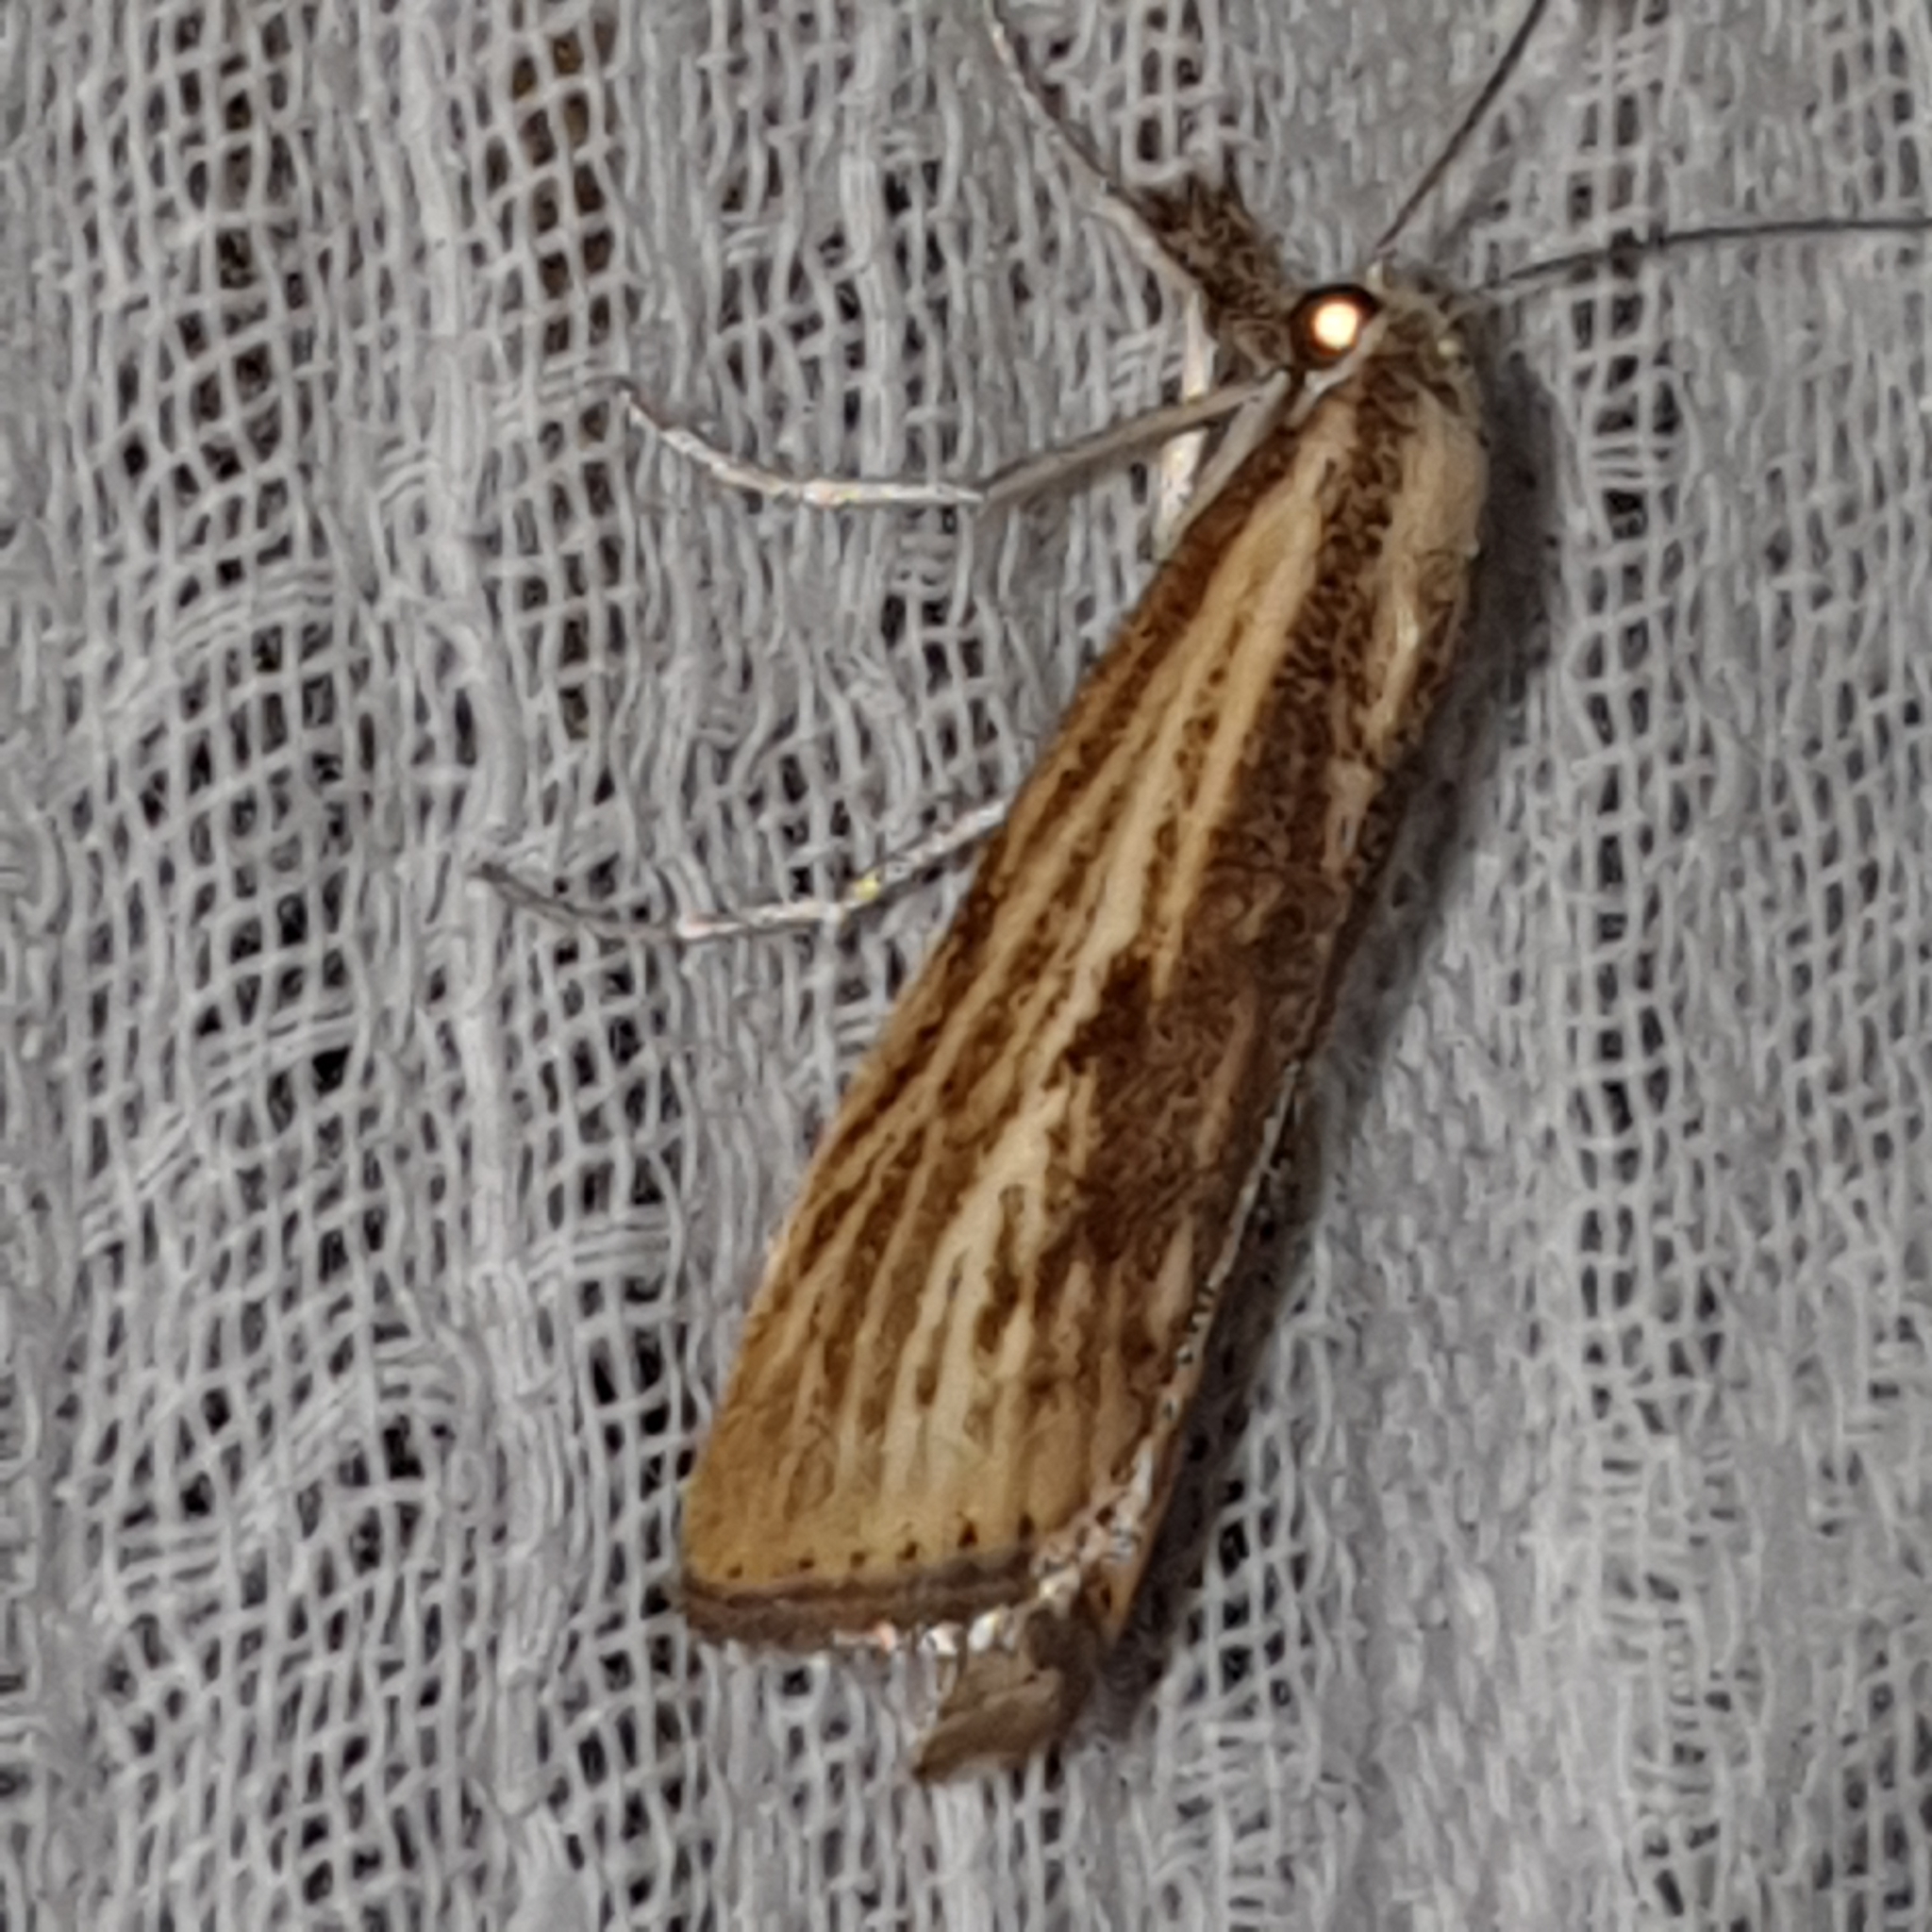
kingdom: Animalia
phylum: Arthropoda
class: Insecta
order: Lepidoptera
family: Crambidae
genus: Agriphila
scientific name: Agriphila inquinatella
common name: Barred grass-veneer
